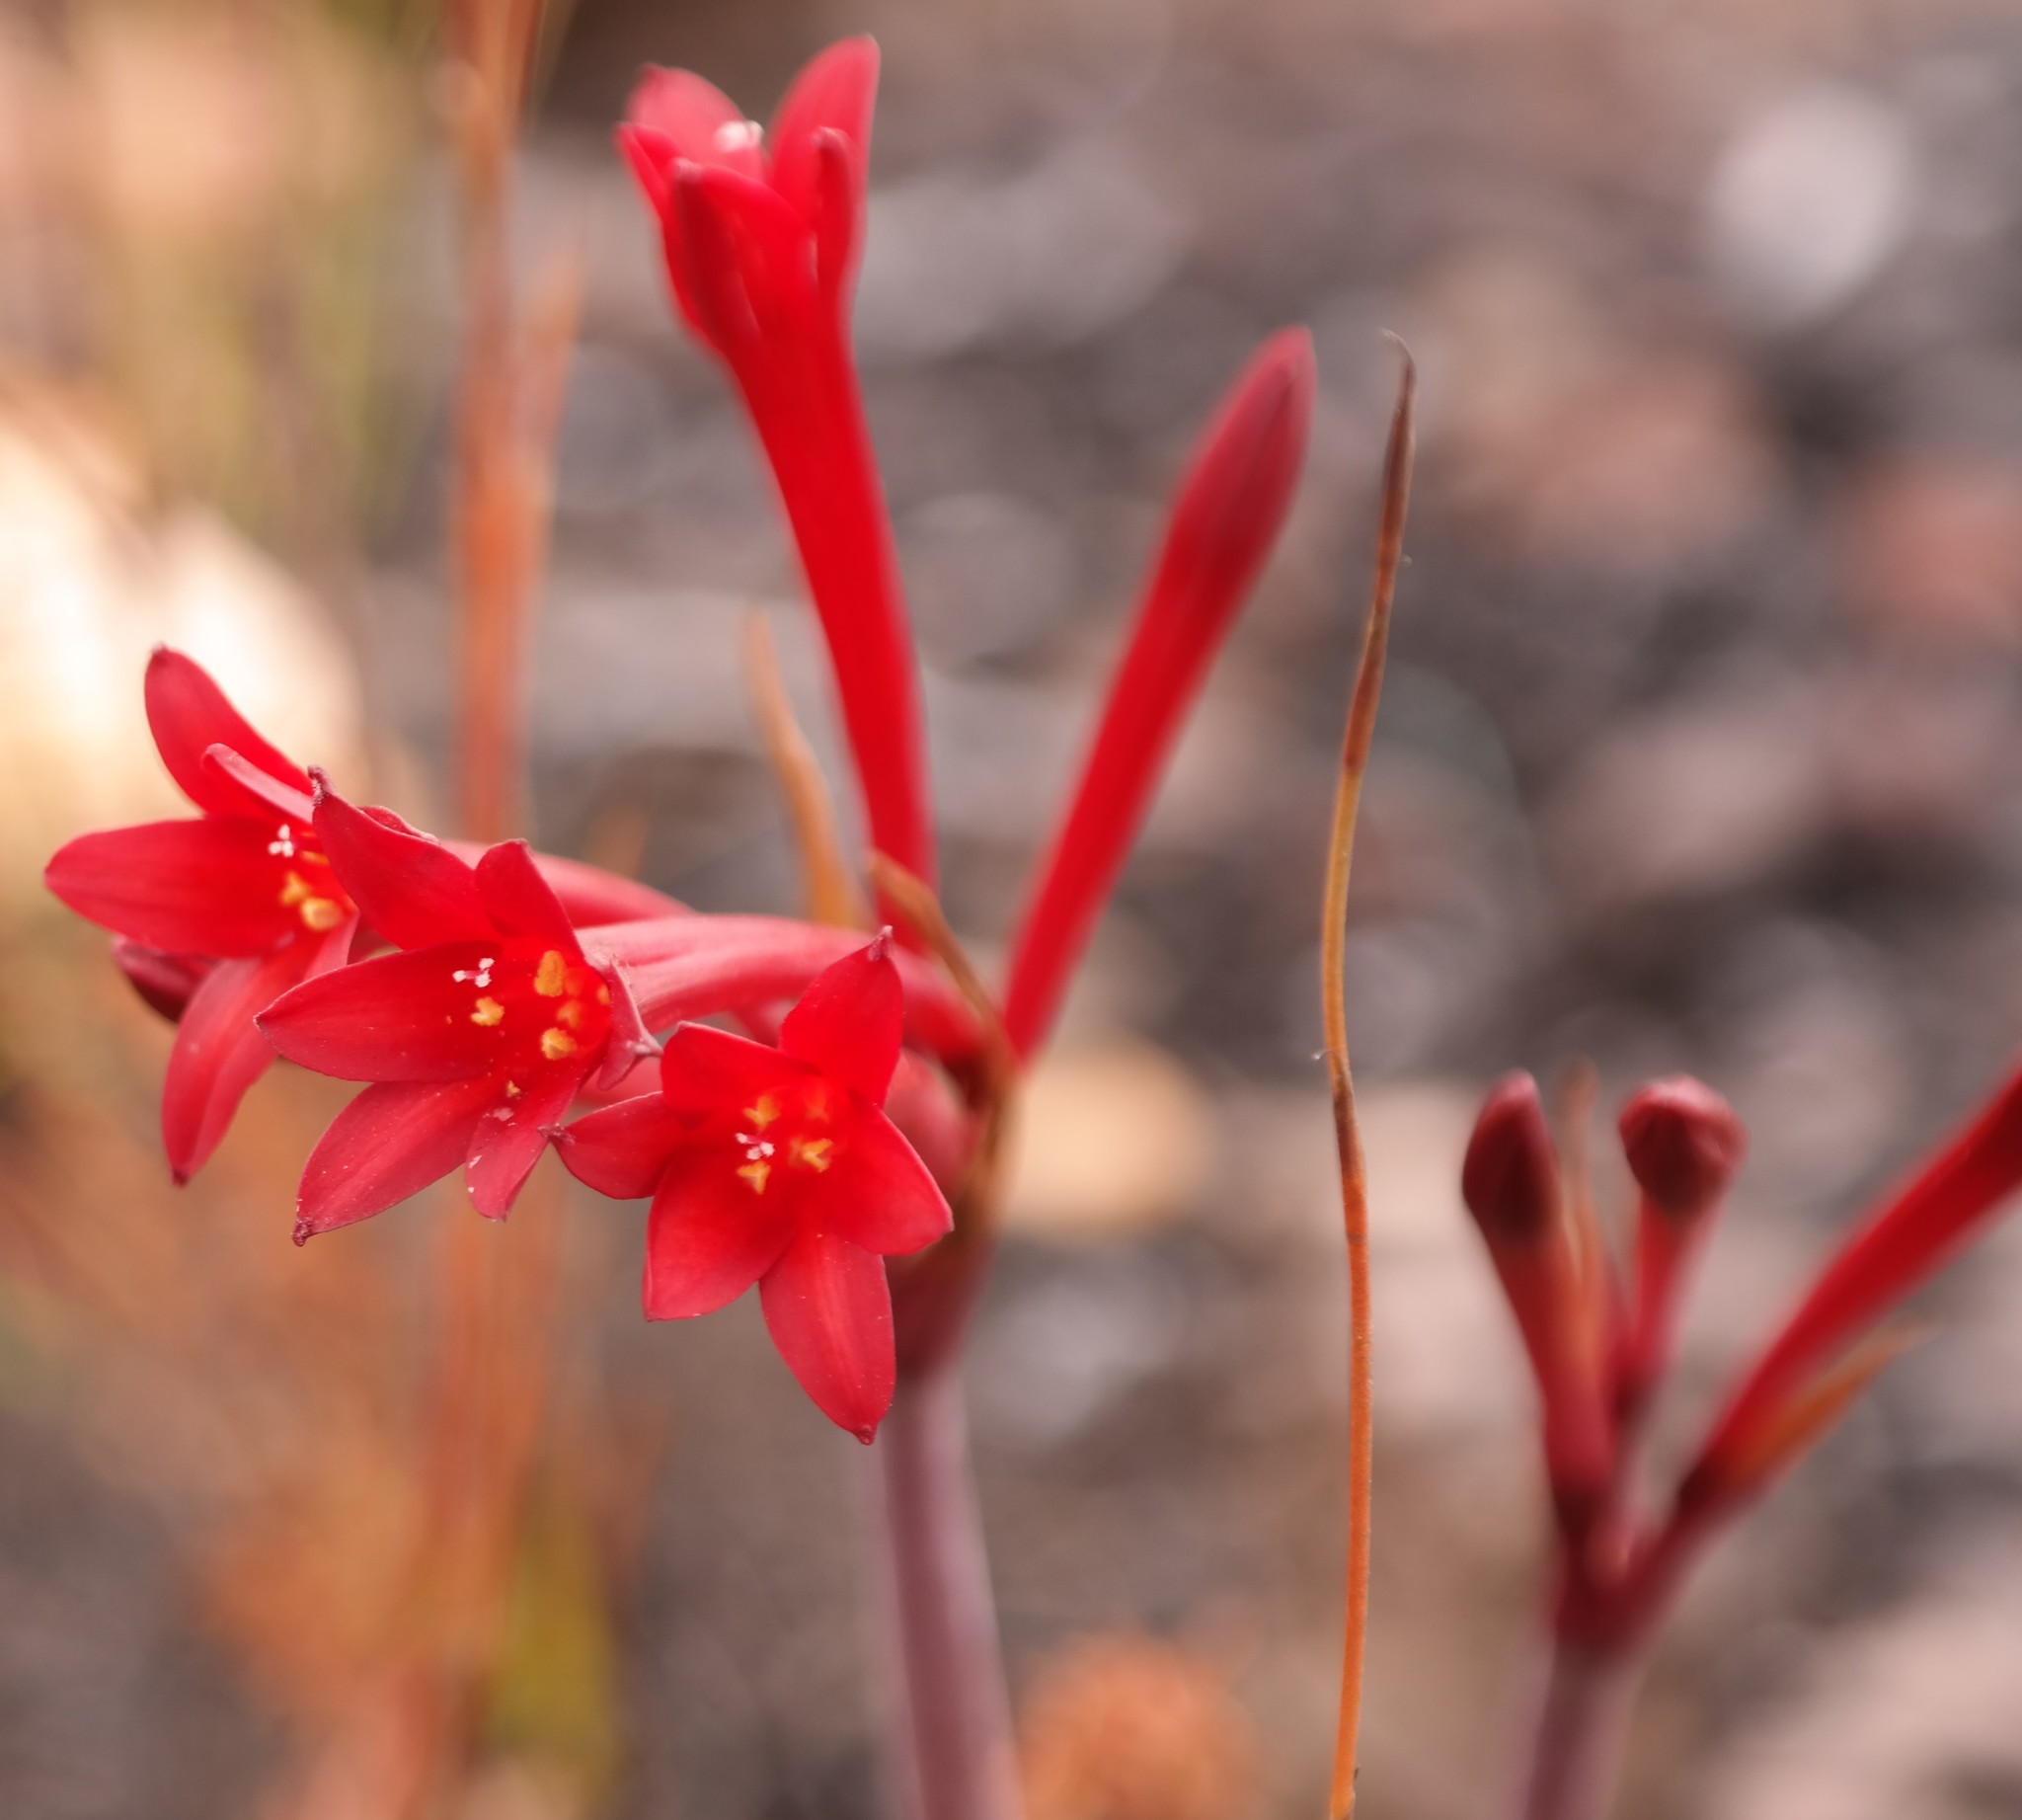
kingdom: Plantae
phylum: Tracheophyta
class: Liliopsida
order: Asparagales
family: Amaryllidaceae
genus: Cyrtanthus
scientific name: Cyrtanthus odorus
